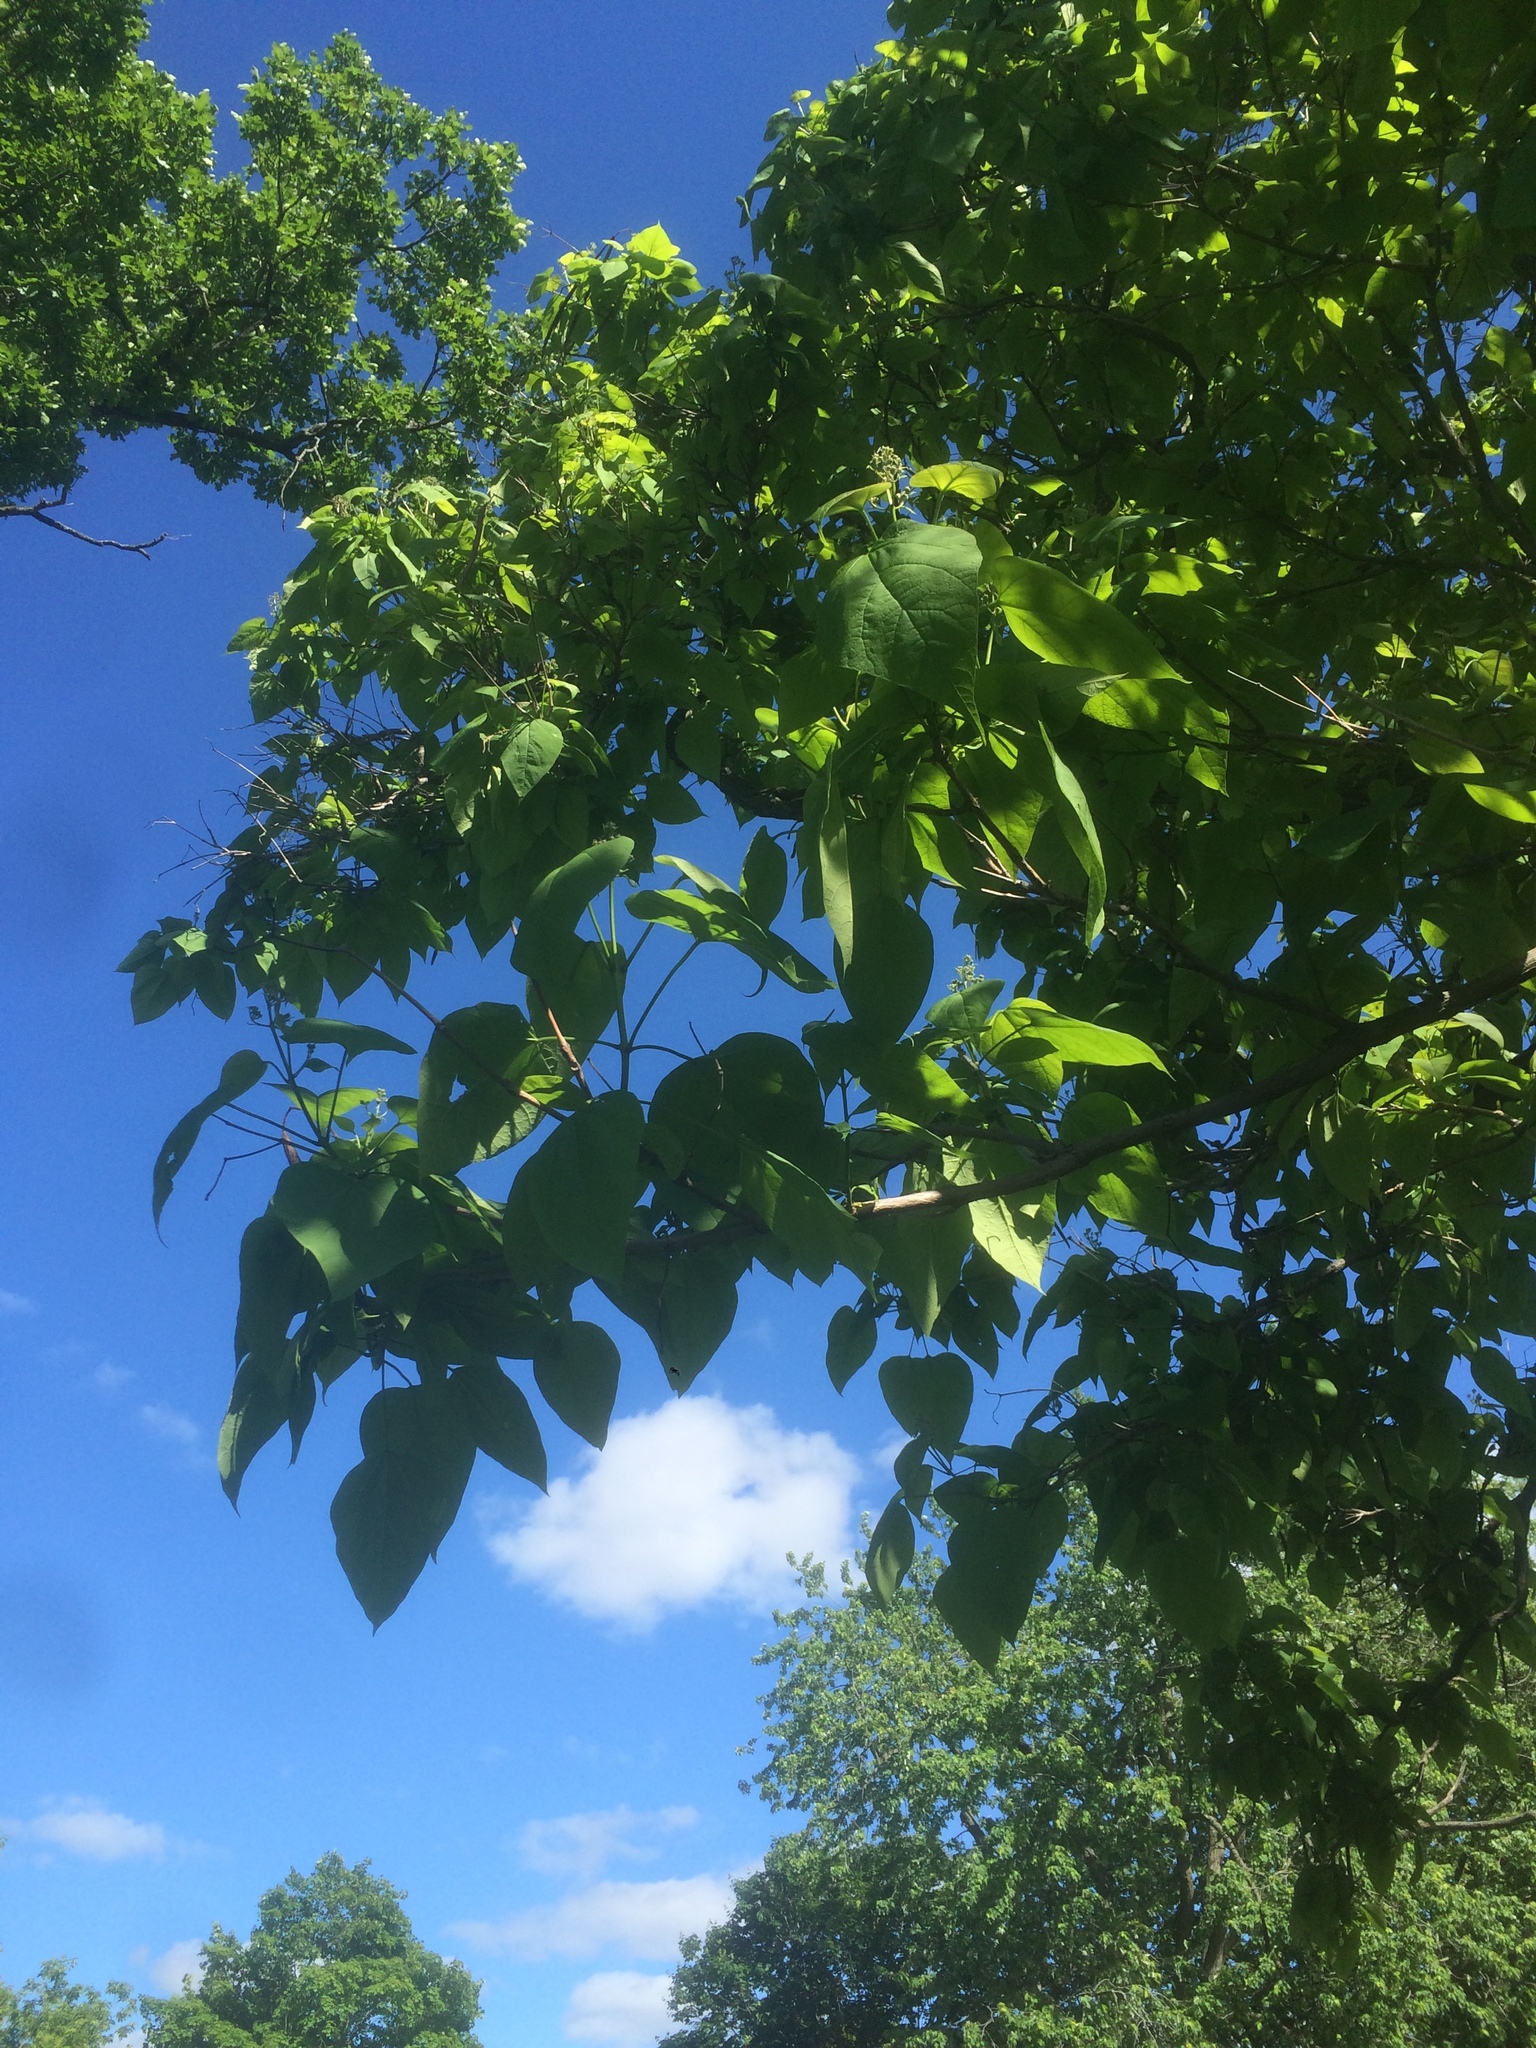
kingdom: Plantae
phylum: Tracheophyta
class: Magnoliopsida
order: Lamiales
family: Bignoniaceae
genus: Catalpa
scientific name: Catalpa speciosa
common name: Northern catalpa
